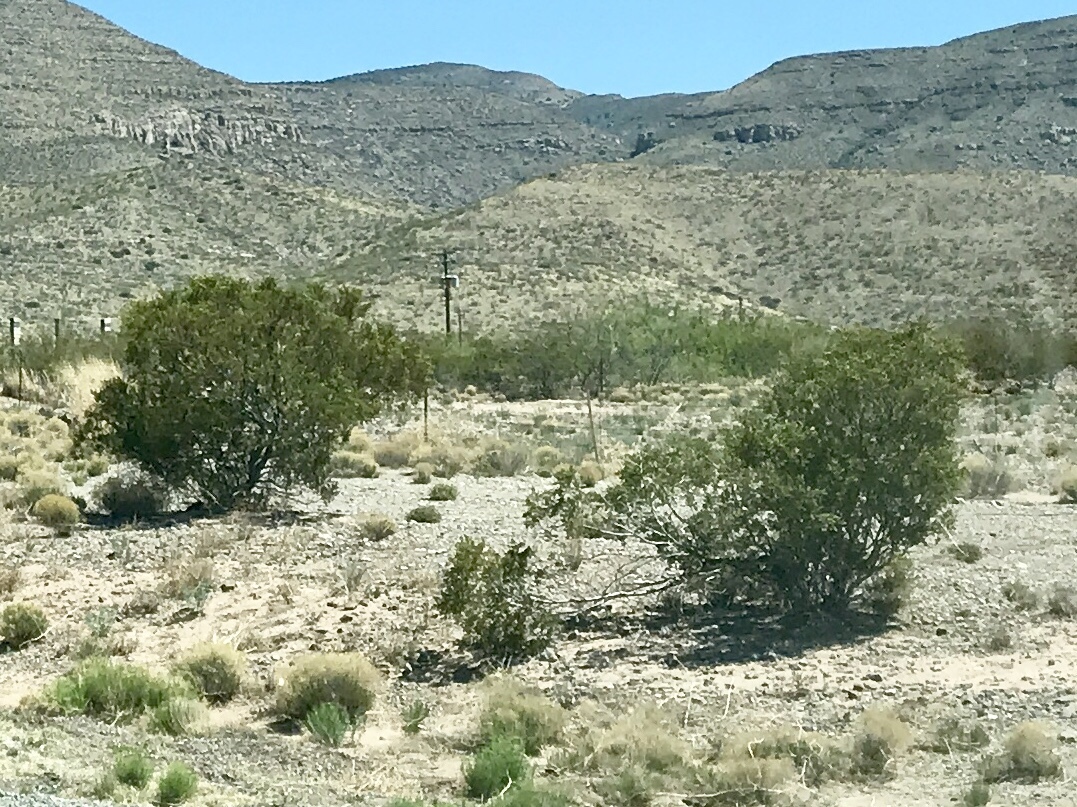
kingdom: Plantae
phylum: Tracheophyta
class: Magnoliopsida
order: Zygophyllales
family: Zygophyllaceae
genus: Larrea
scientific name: Larrea tridentata
